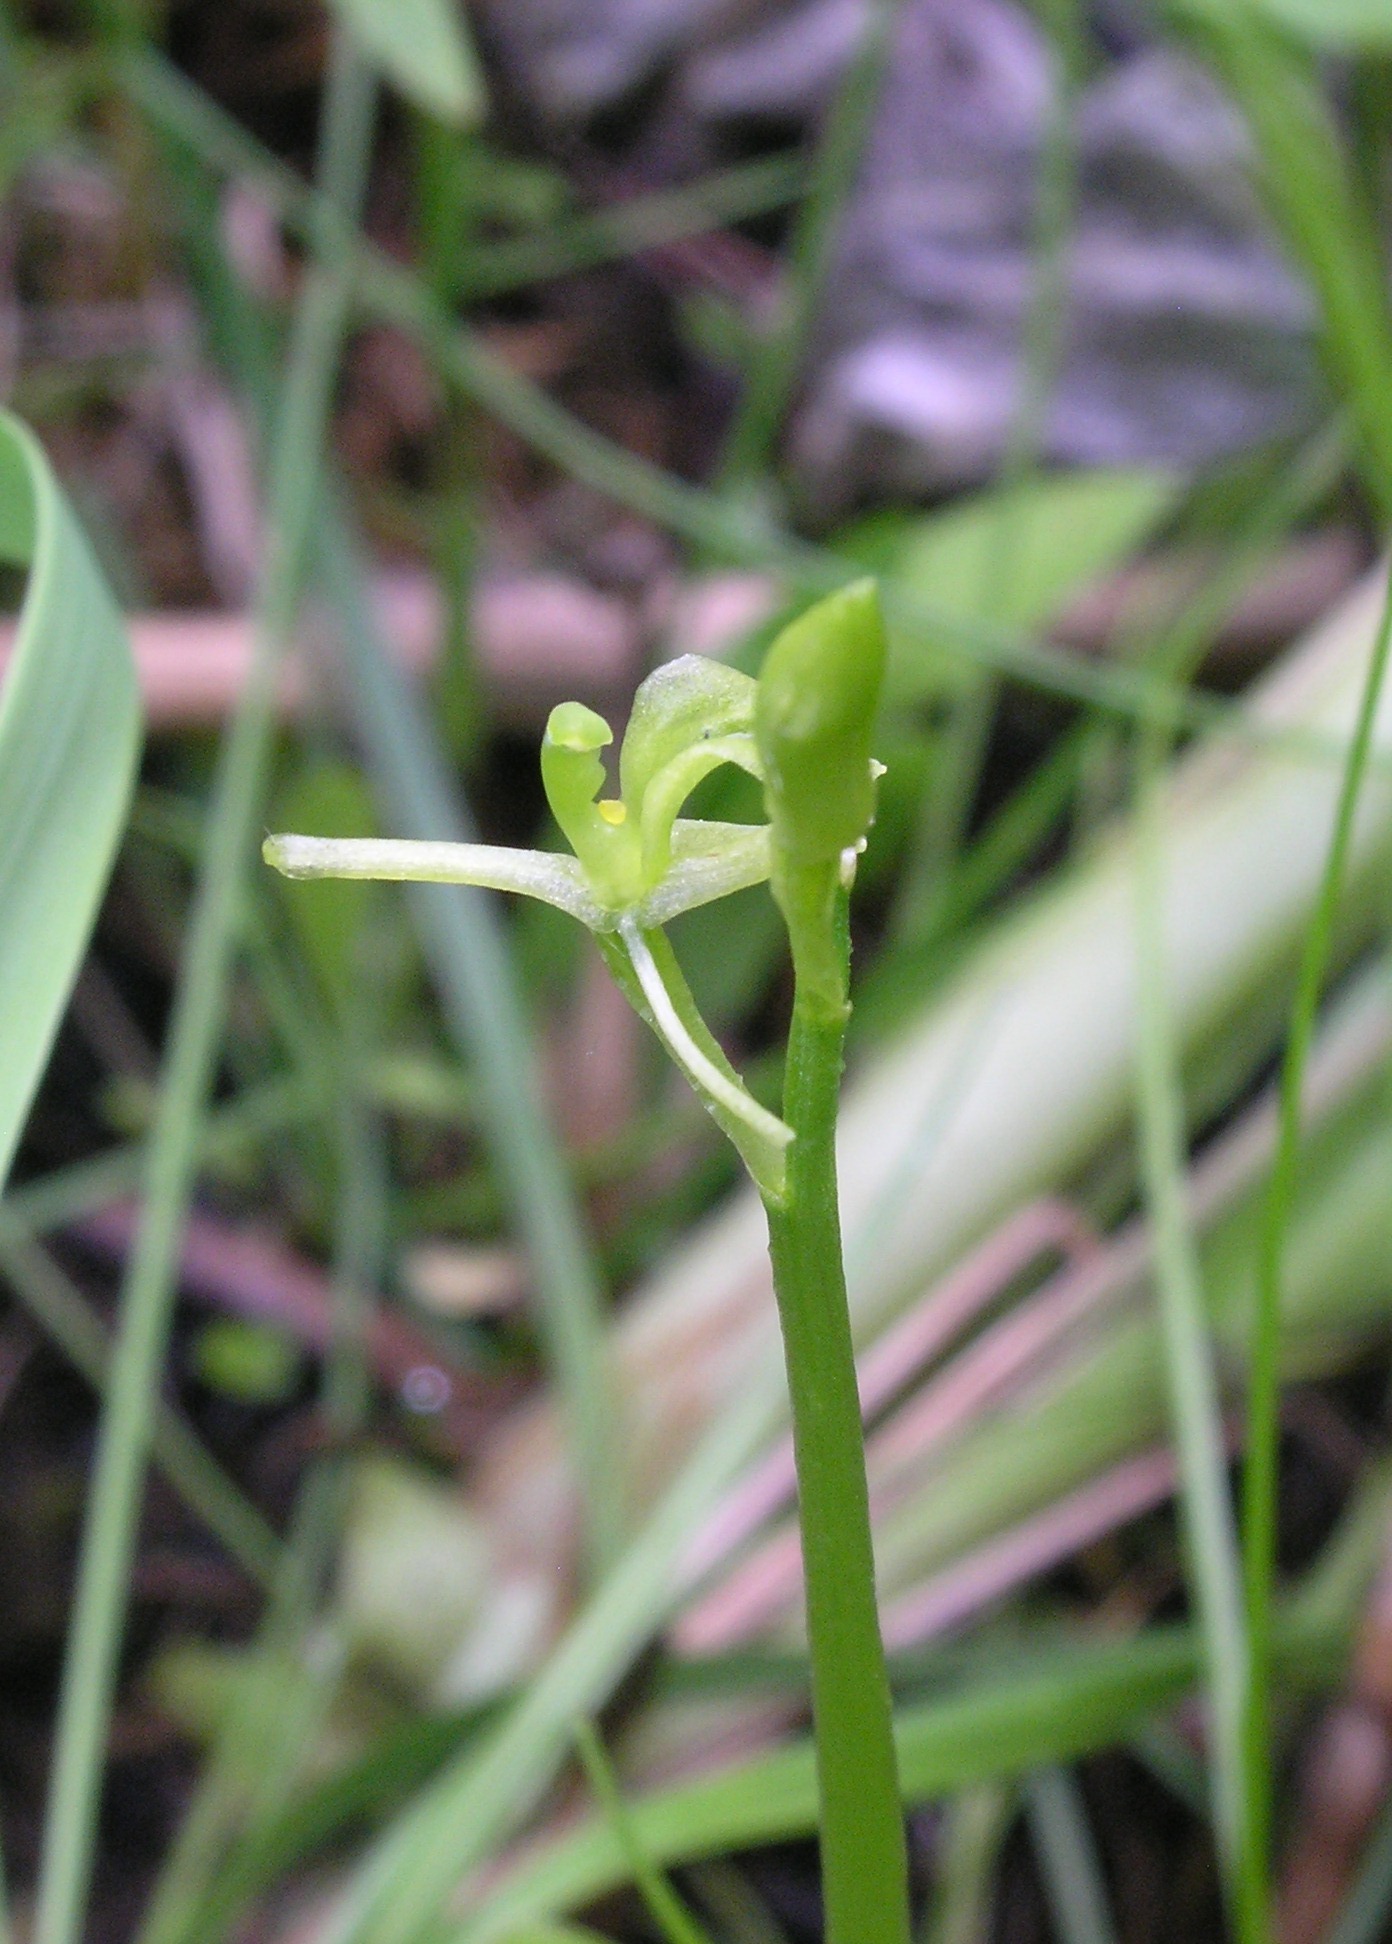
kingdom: Animalia
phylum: Arthropoda
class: Insecta
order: Coleoptera
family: Curculionidae
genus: Liparis
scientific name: Liparis loeselii
